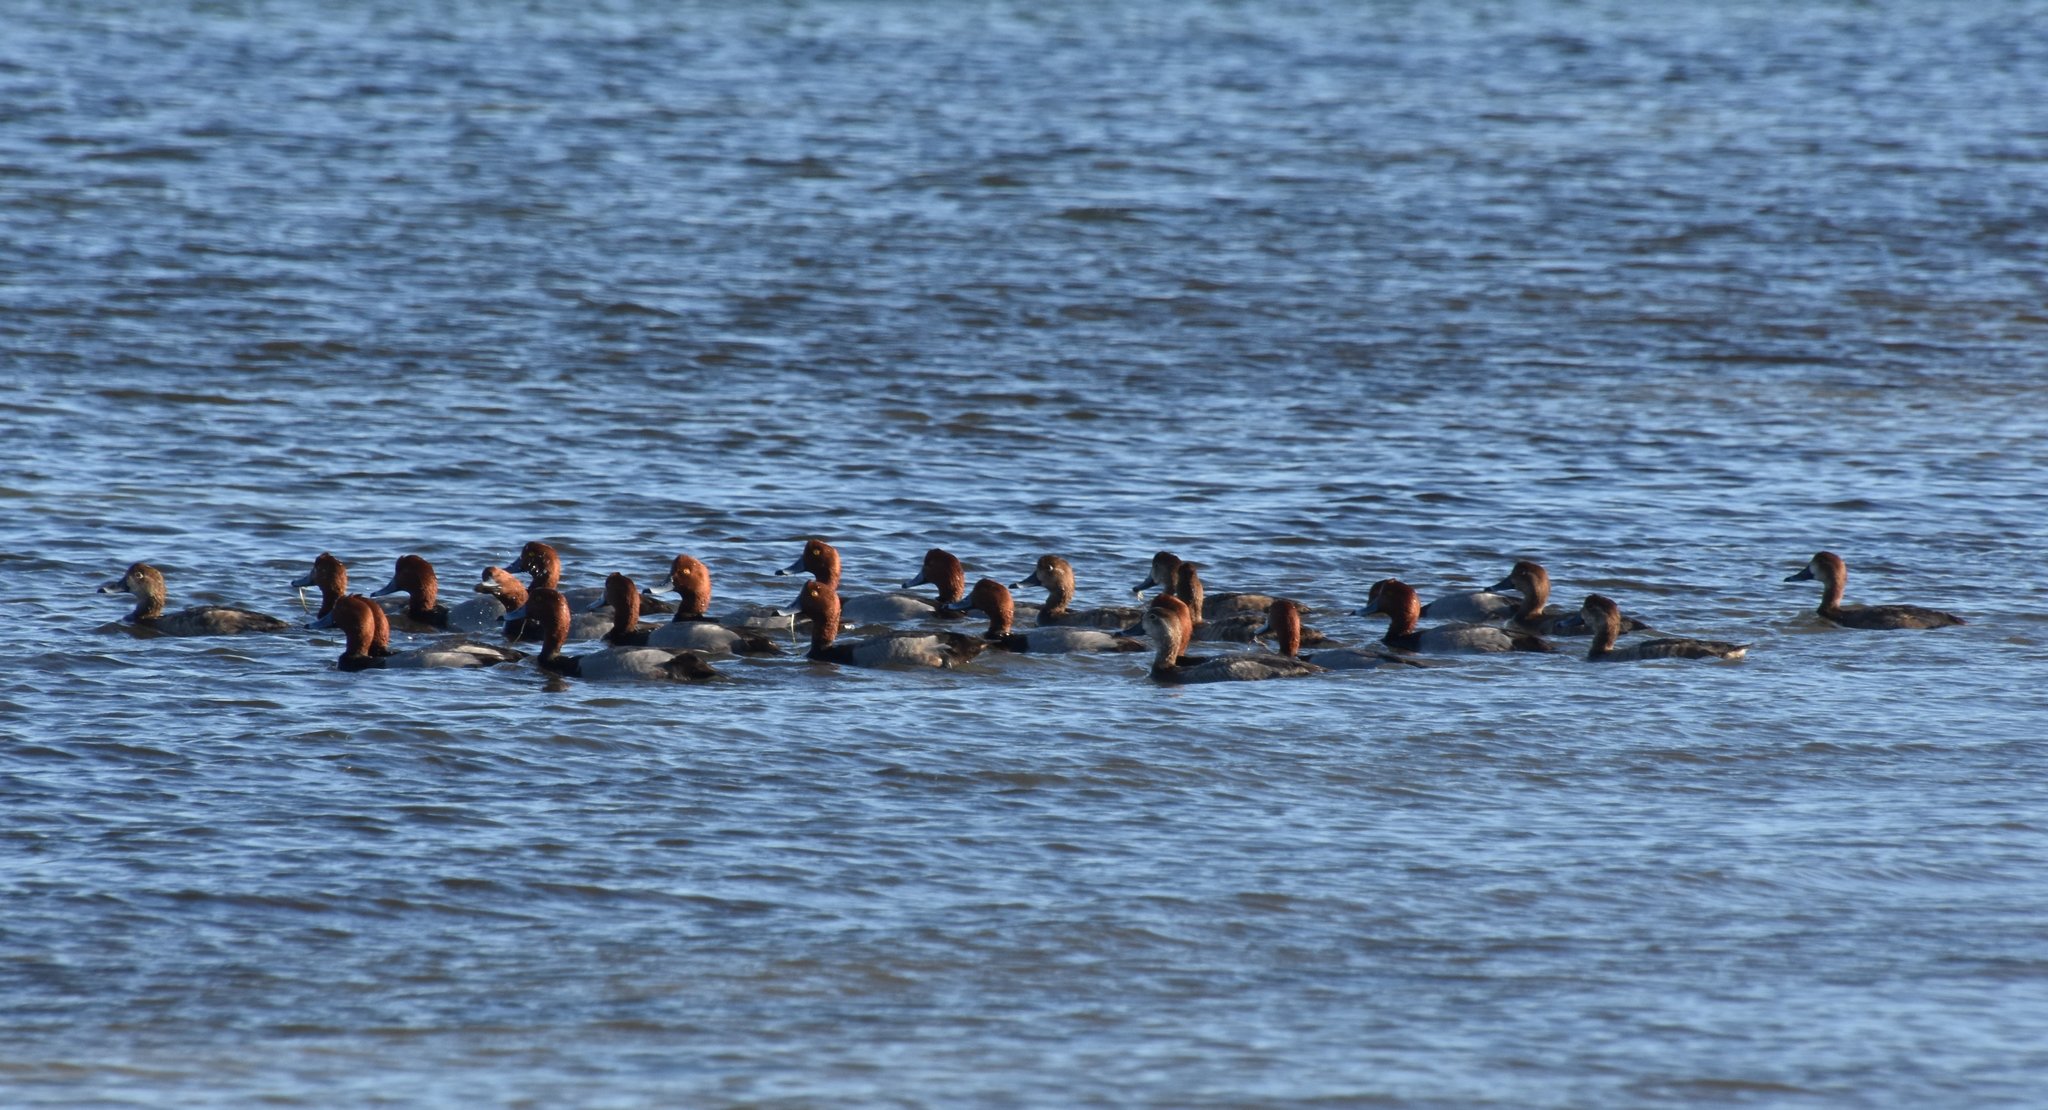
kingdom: Animalia
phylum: Chordata
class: Aves
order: Anseriformes
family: Anatidae
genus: Aythya
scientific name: Aythya americana
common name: Redhead
